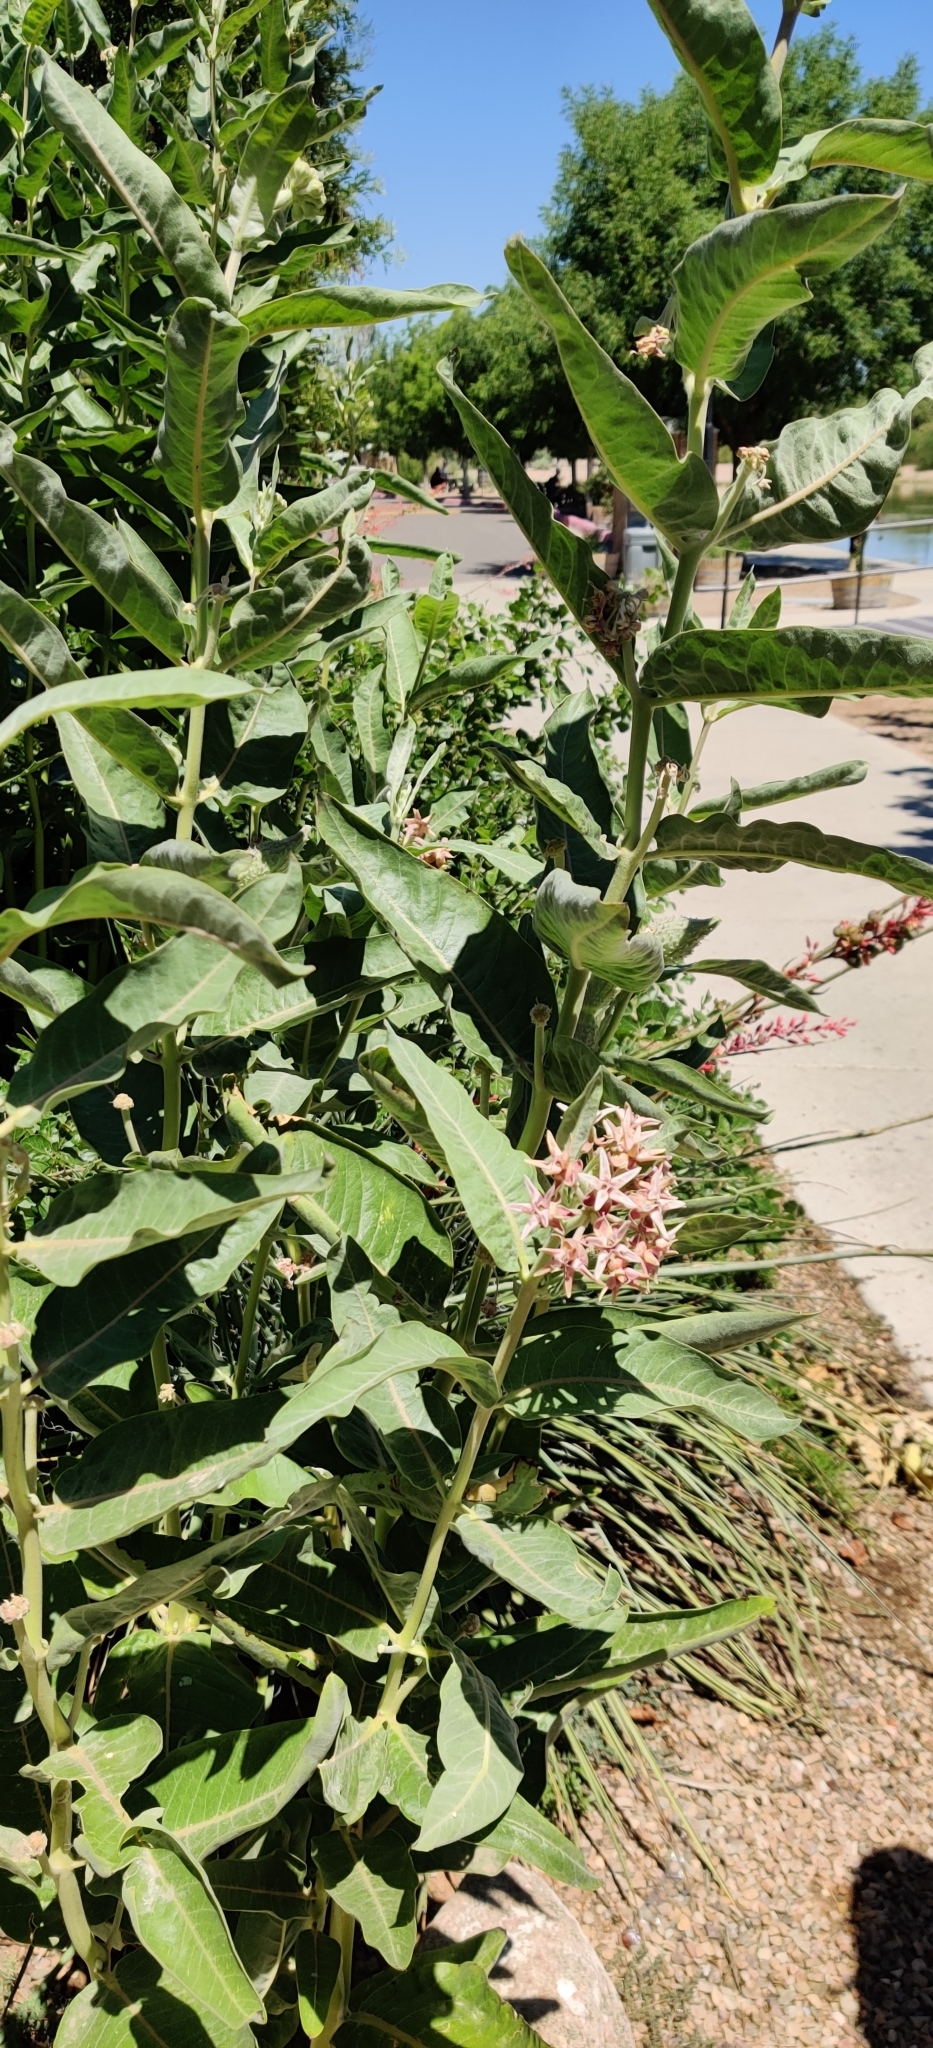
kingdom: Plantae
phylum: Tracheophyta
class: Magnoliopsida
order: Gentianales
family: Apocynaceae
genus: Asclepias
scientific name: Asclepias speciosa
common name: Showy milkweed
